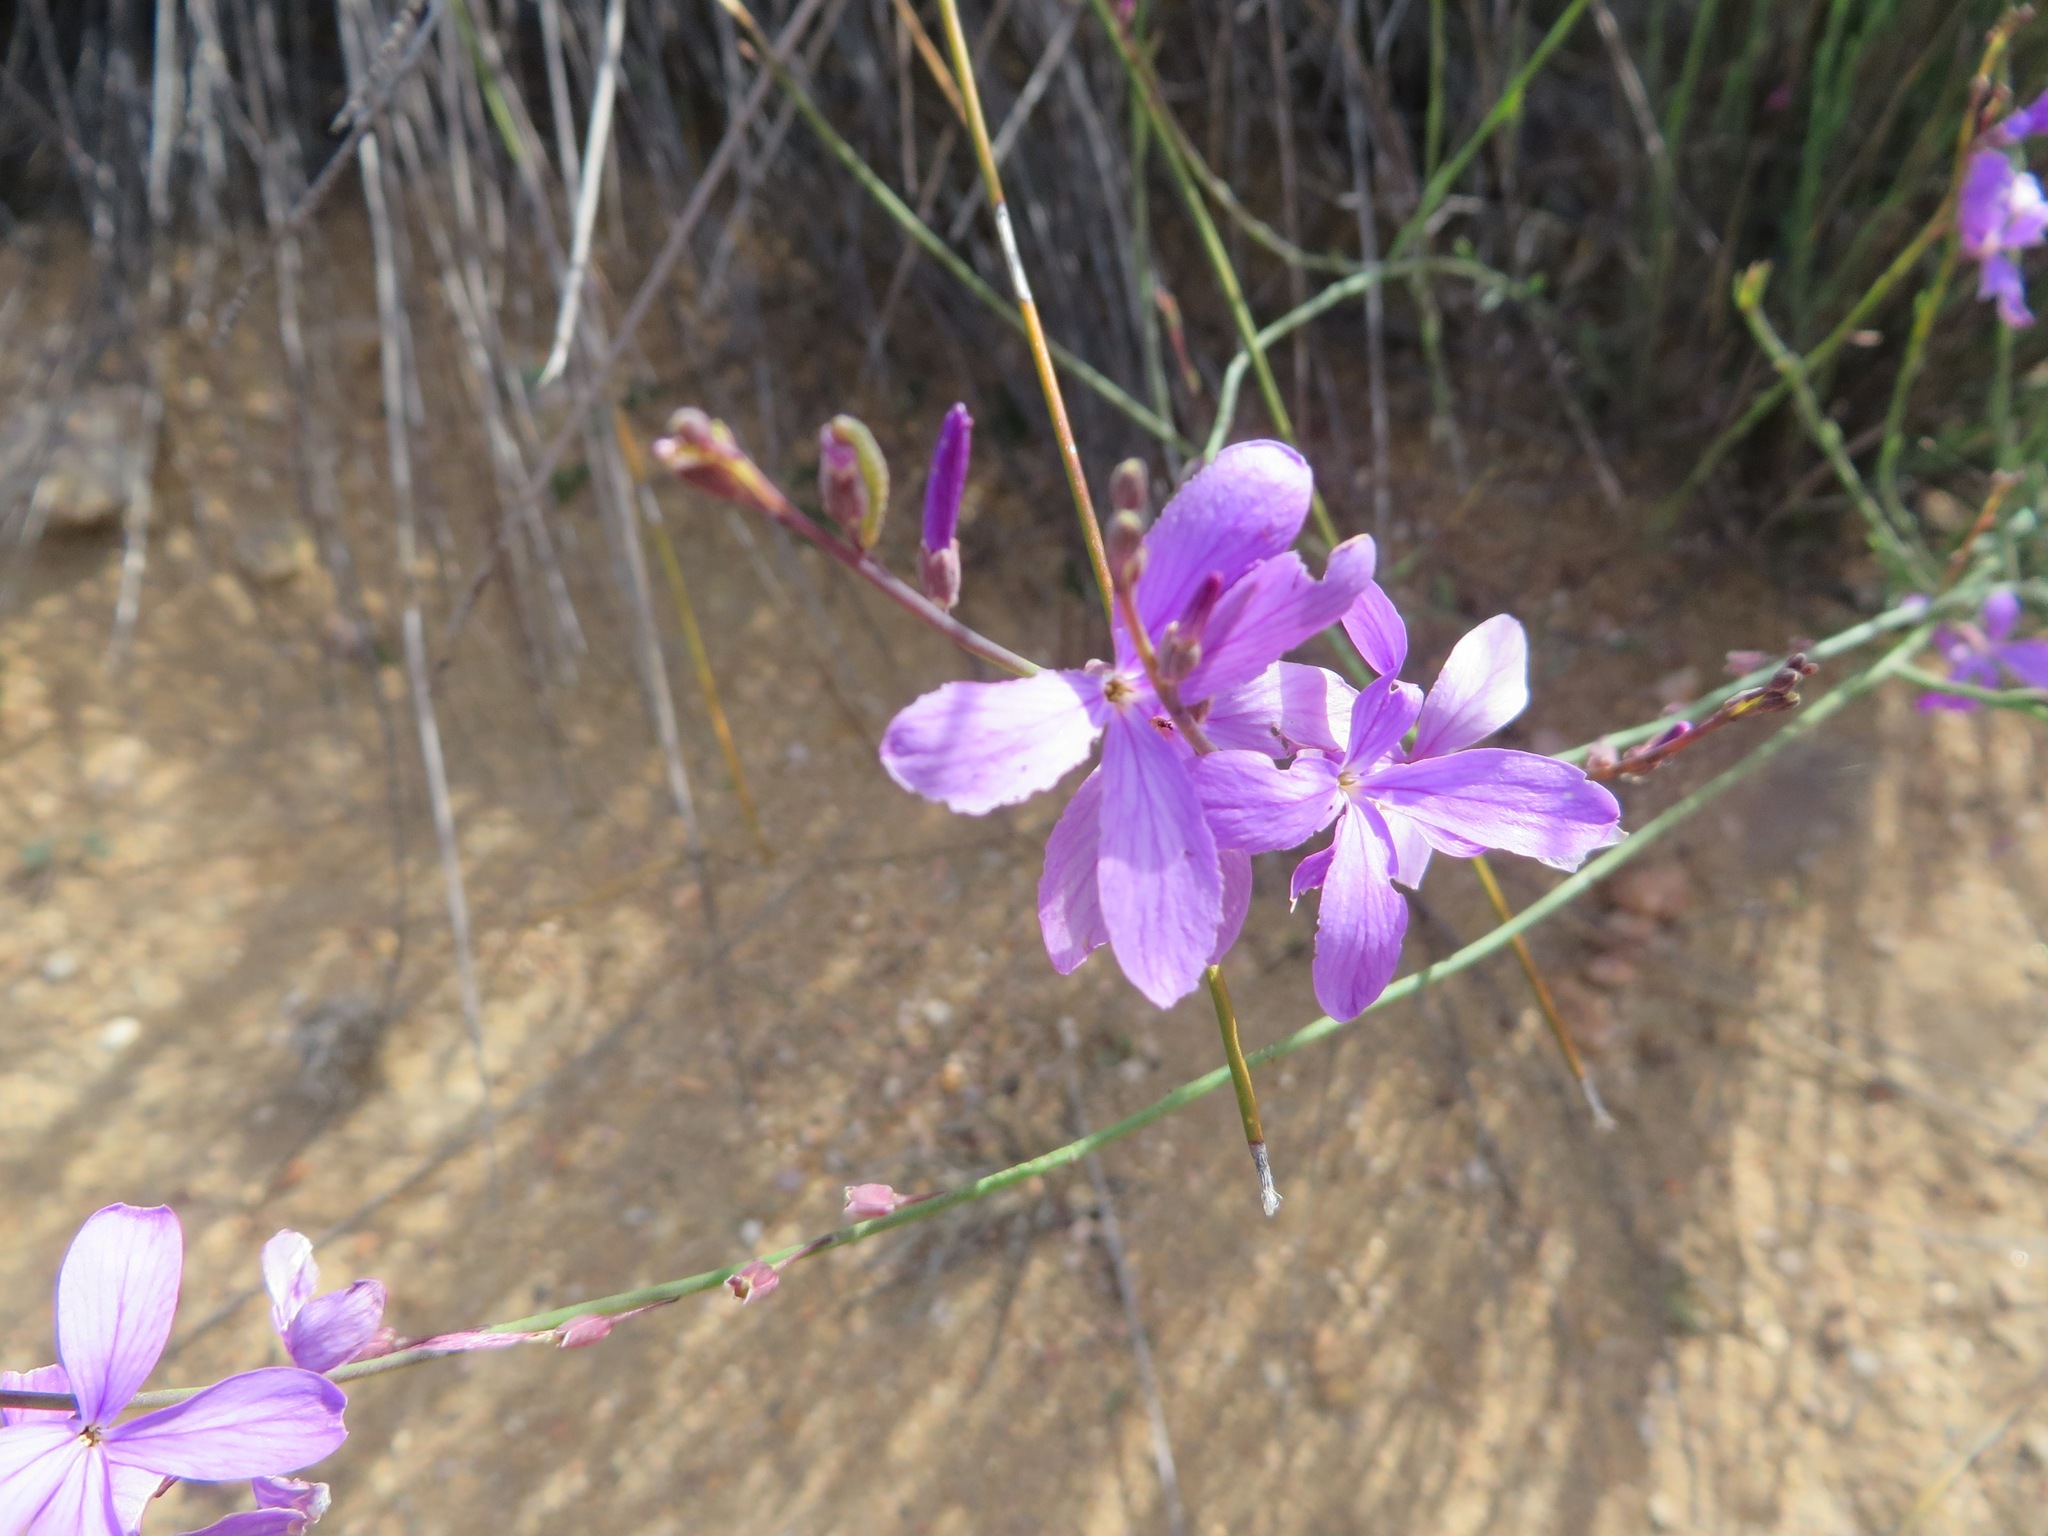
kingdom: Plantae
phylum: Tracheophyta
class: Magnoliopsida
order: Brassicales
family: Brassicaceae
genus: Heliophila
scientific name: Heliophila juncea
